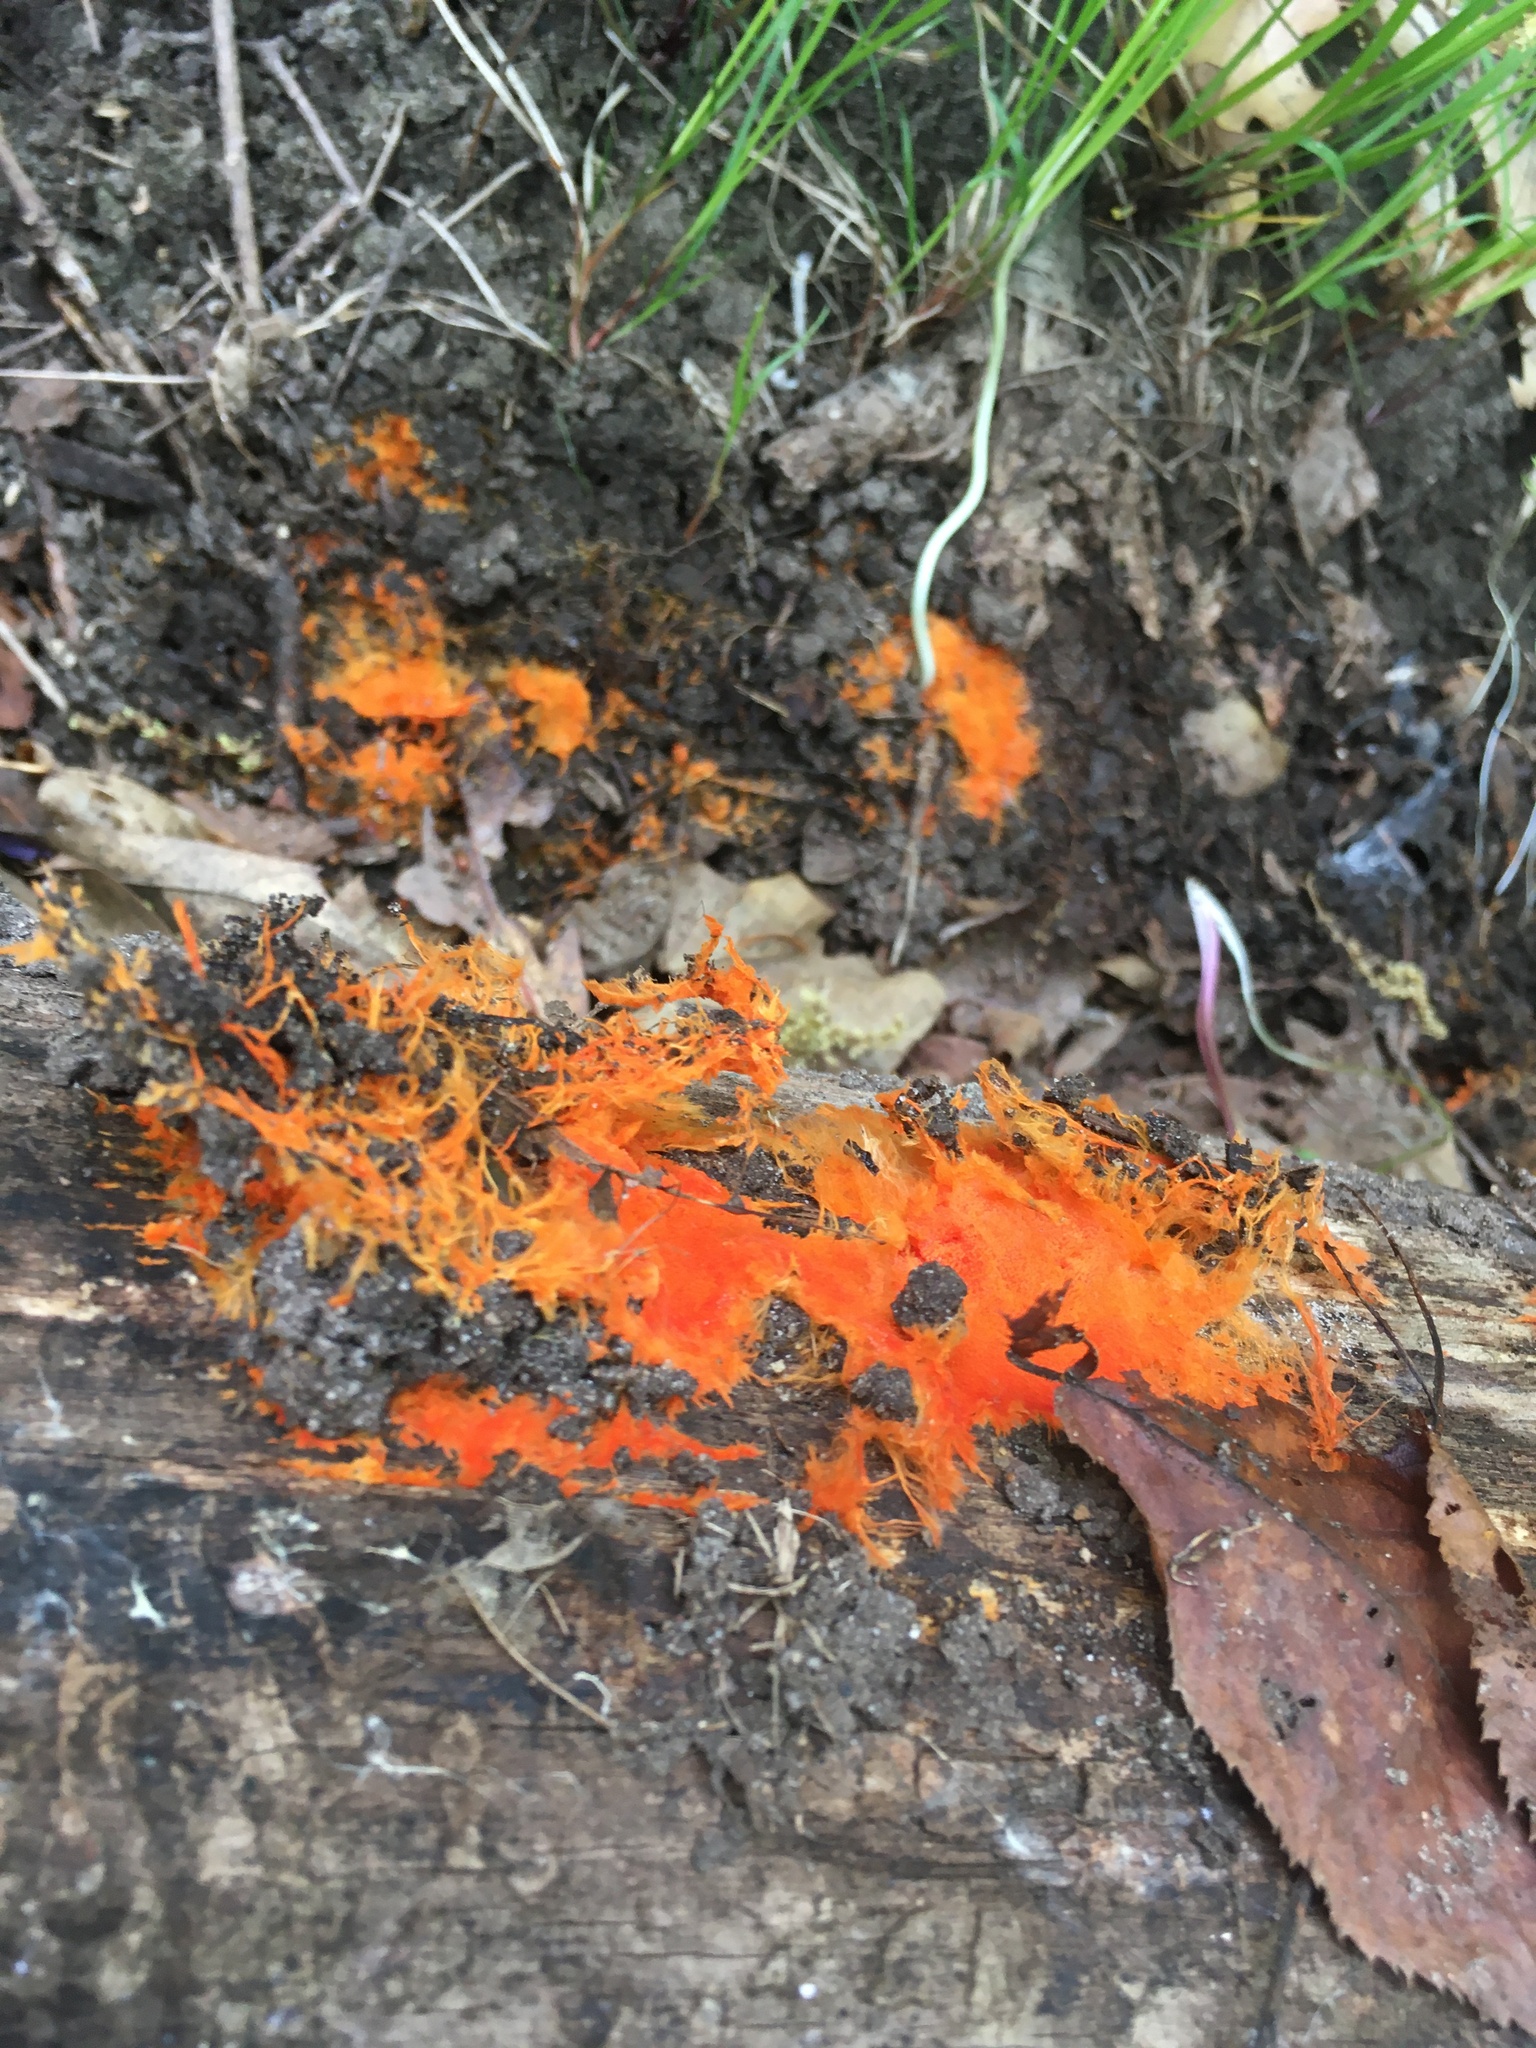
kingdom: Fungi
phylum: Basidiomycota
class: Agaricomycetes
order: Polyporales
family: Meruliaceae
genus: Hydnophlebia
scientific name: Hydnophlebia chrysorhiza
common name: Spreading yellow tooth
